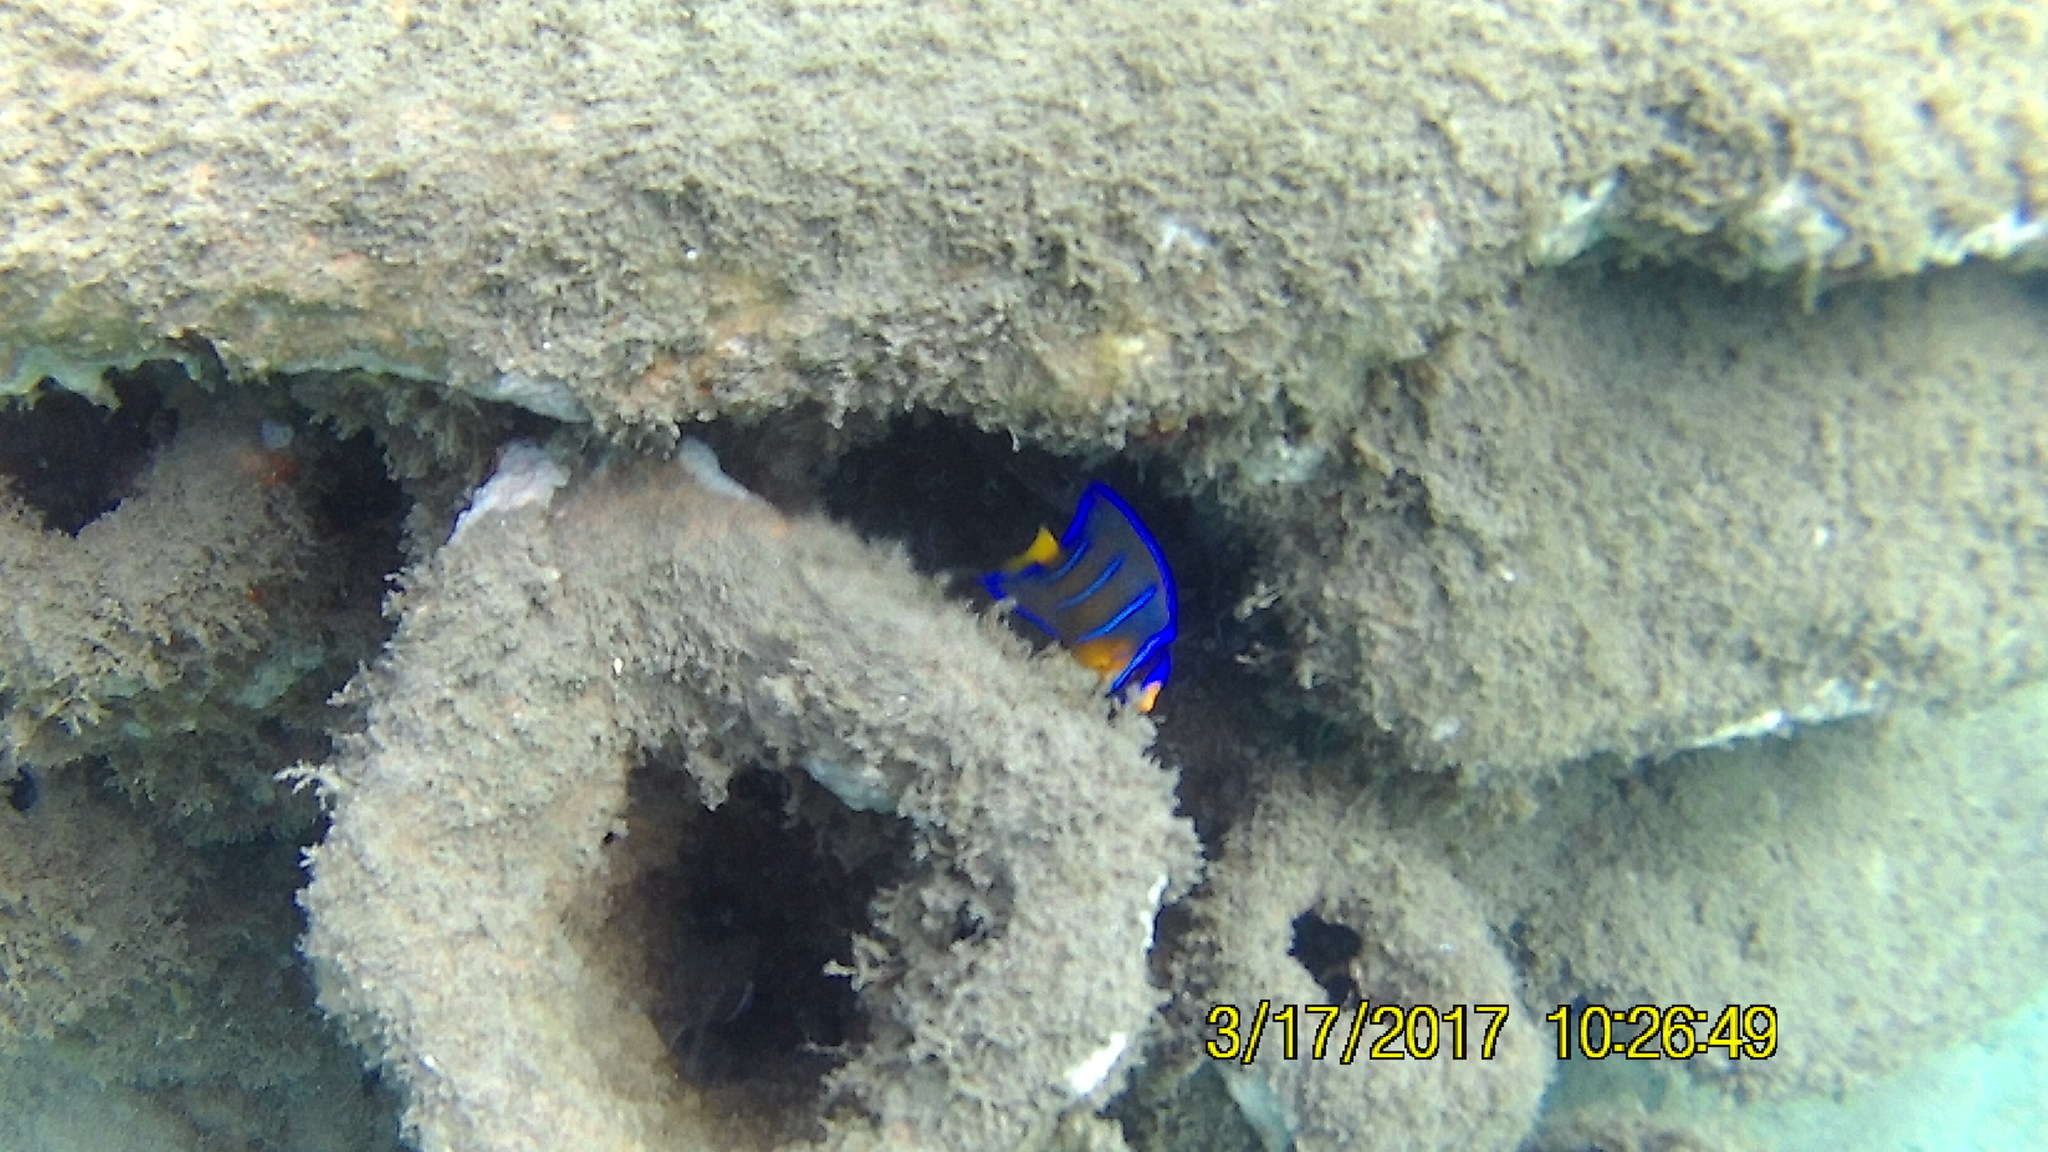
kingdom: Animalia
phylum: Chordata
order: Perciformes
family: Pomacanthidae
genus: Holacanthus
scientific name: Holacanthus ciliaris
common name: Queen angelfish
